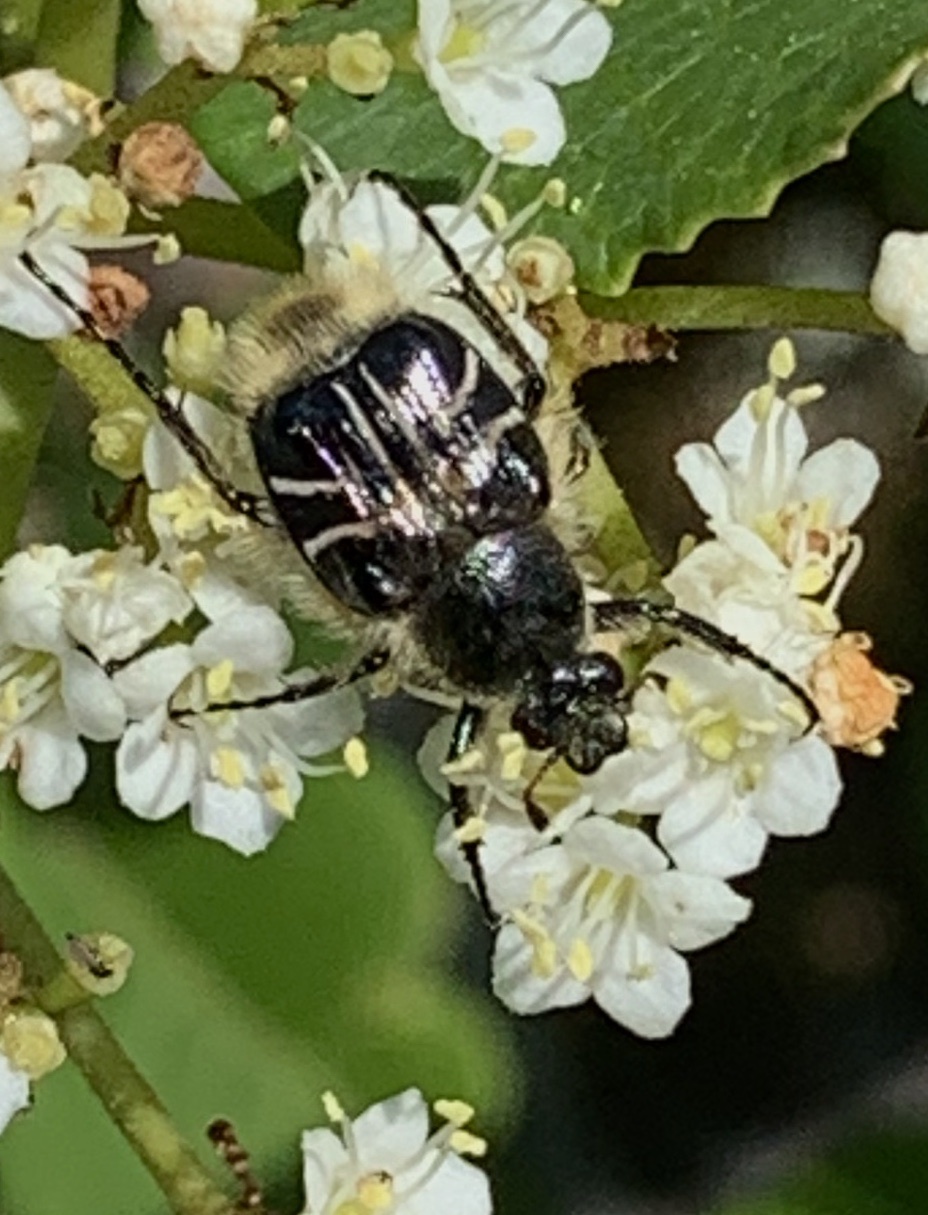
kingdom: Animalia
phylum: Arthropoda
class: Insecta
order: Coleoptera
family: Scarabaeidae
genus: Trichiotinus
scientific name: Trichiotinus assimilis
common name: Bee-mimic beetle
